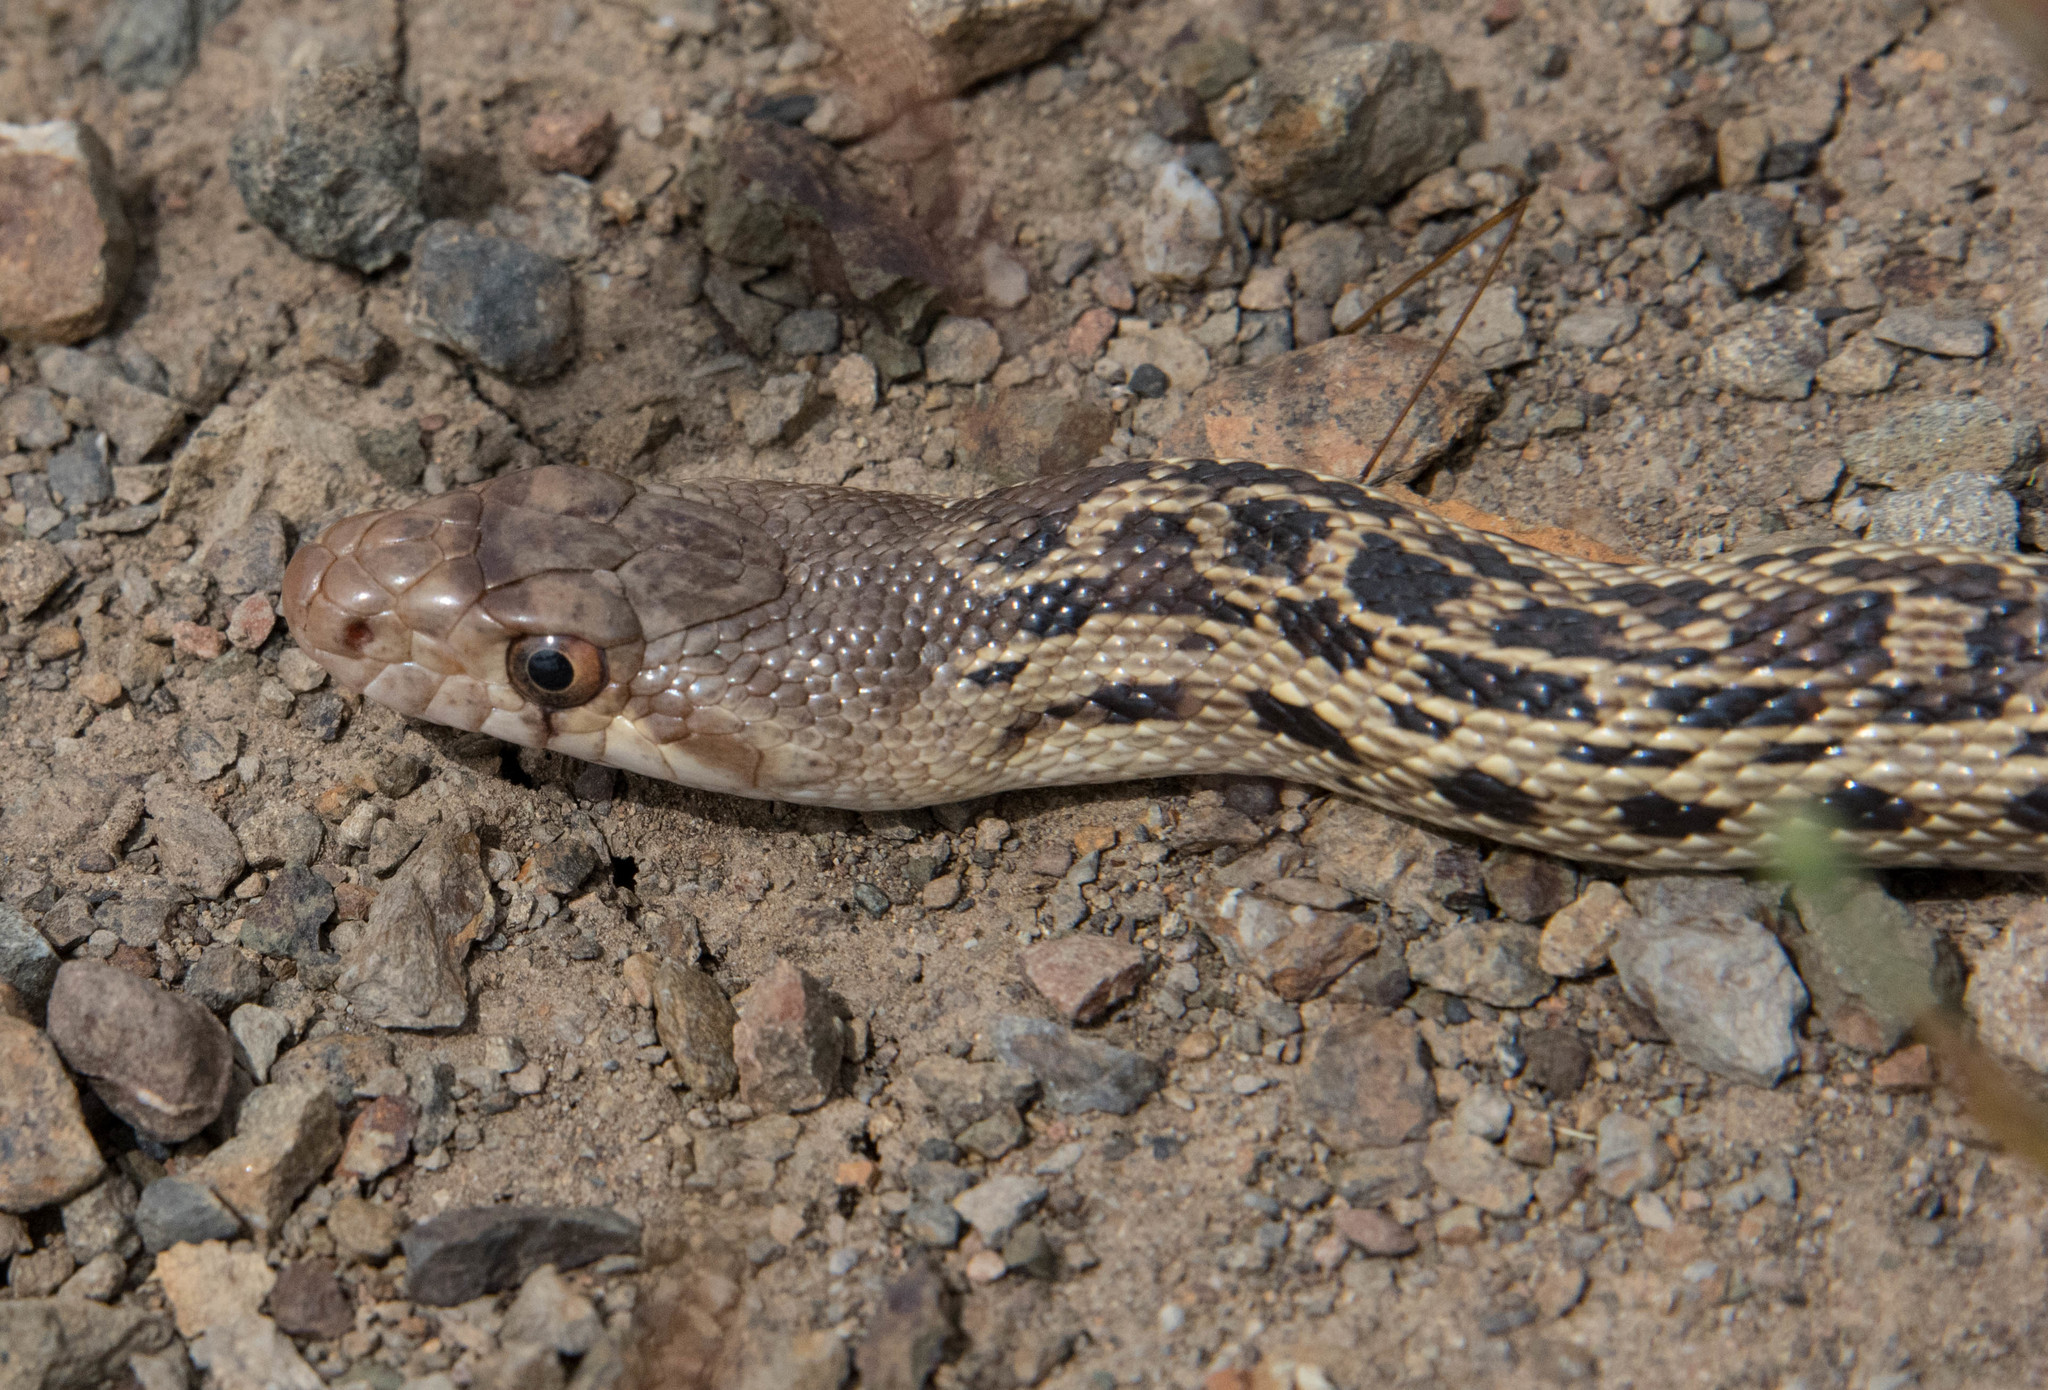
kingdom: Animalia
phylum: Chordata
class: Squamata
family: Colubridae
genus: Pituophis
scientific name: Pituophis catenifer
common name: Gopher snake
